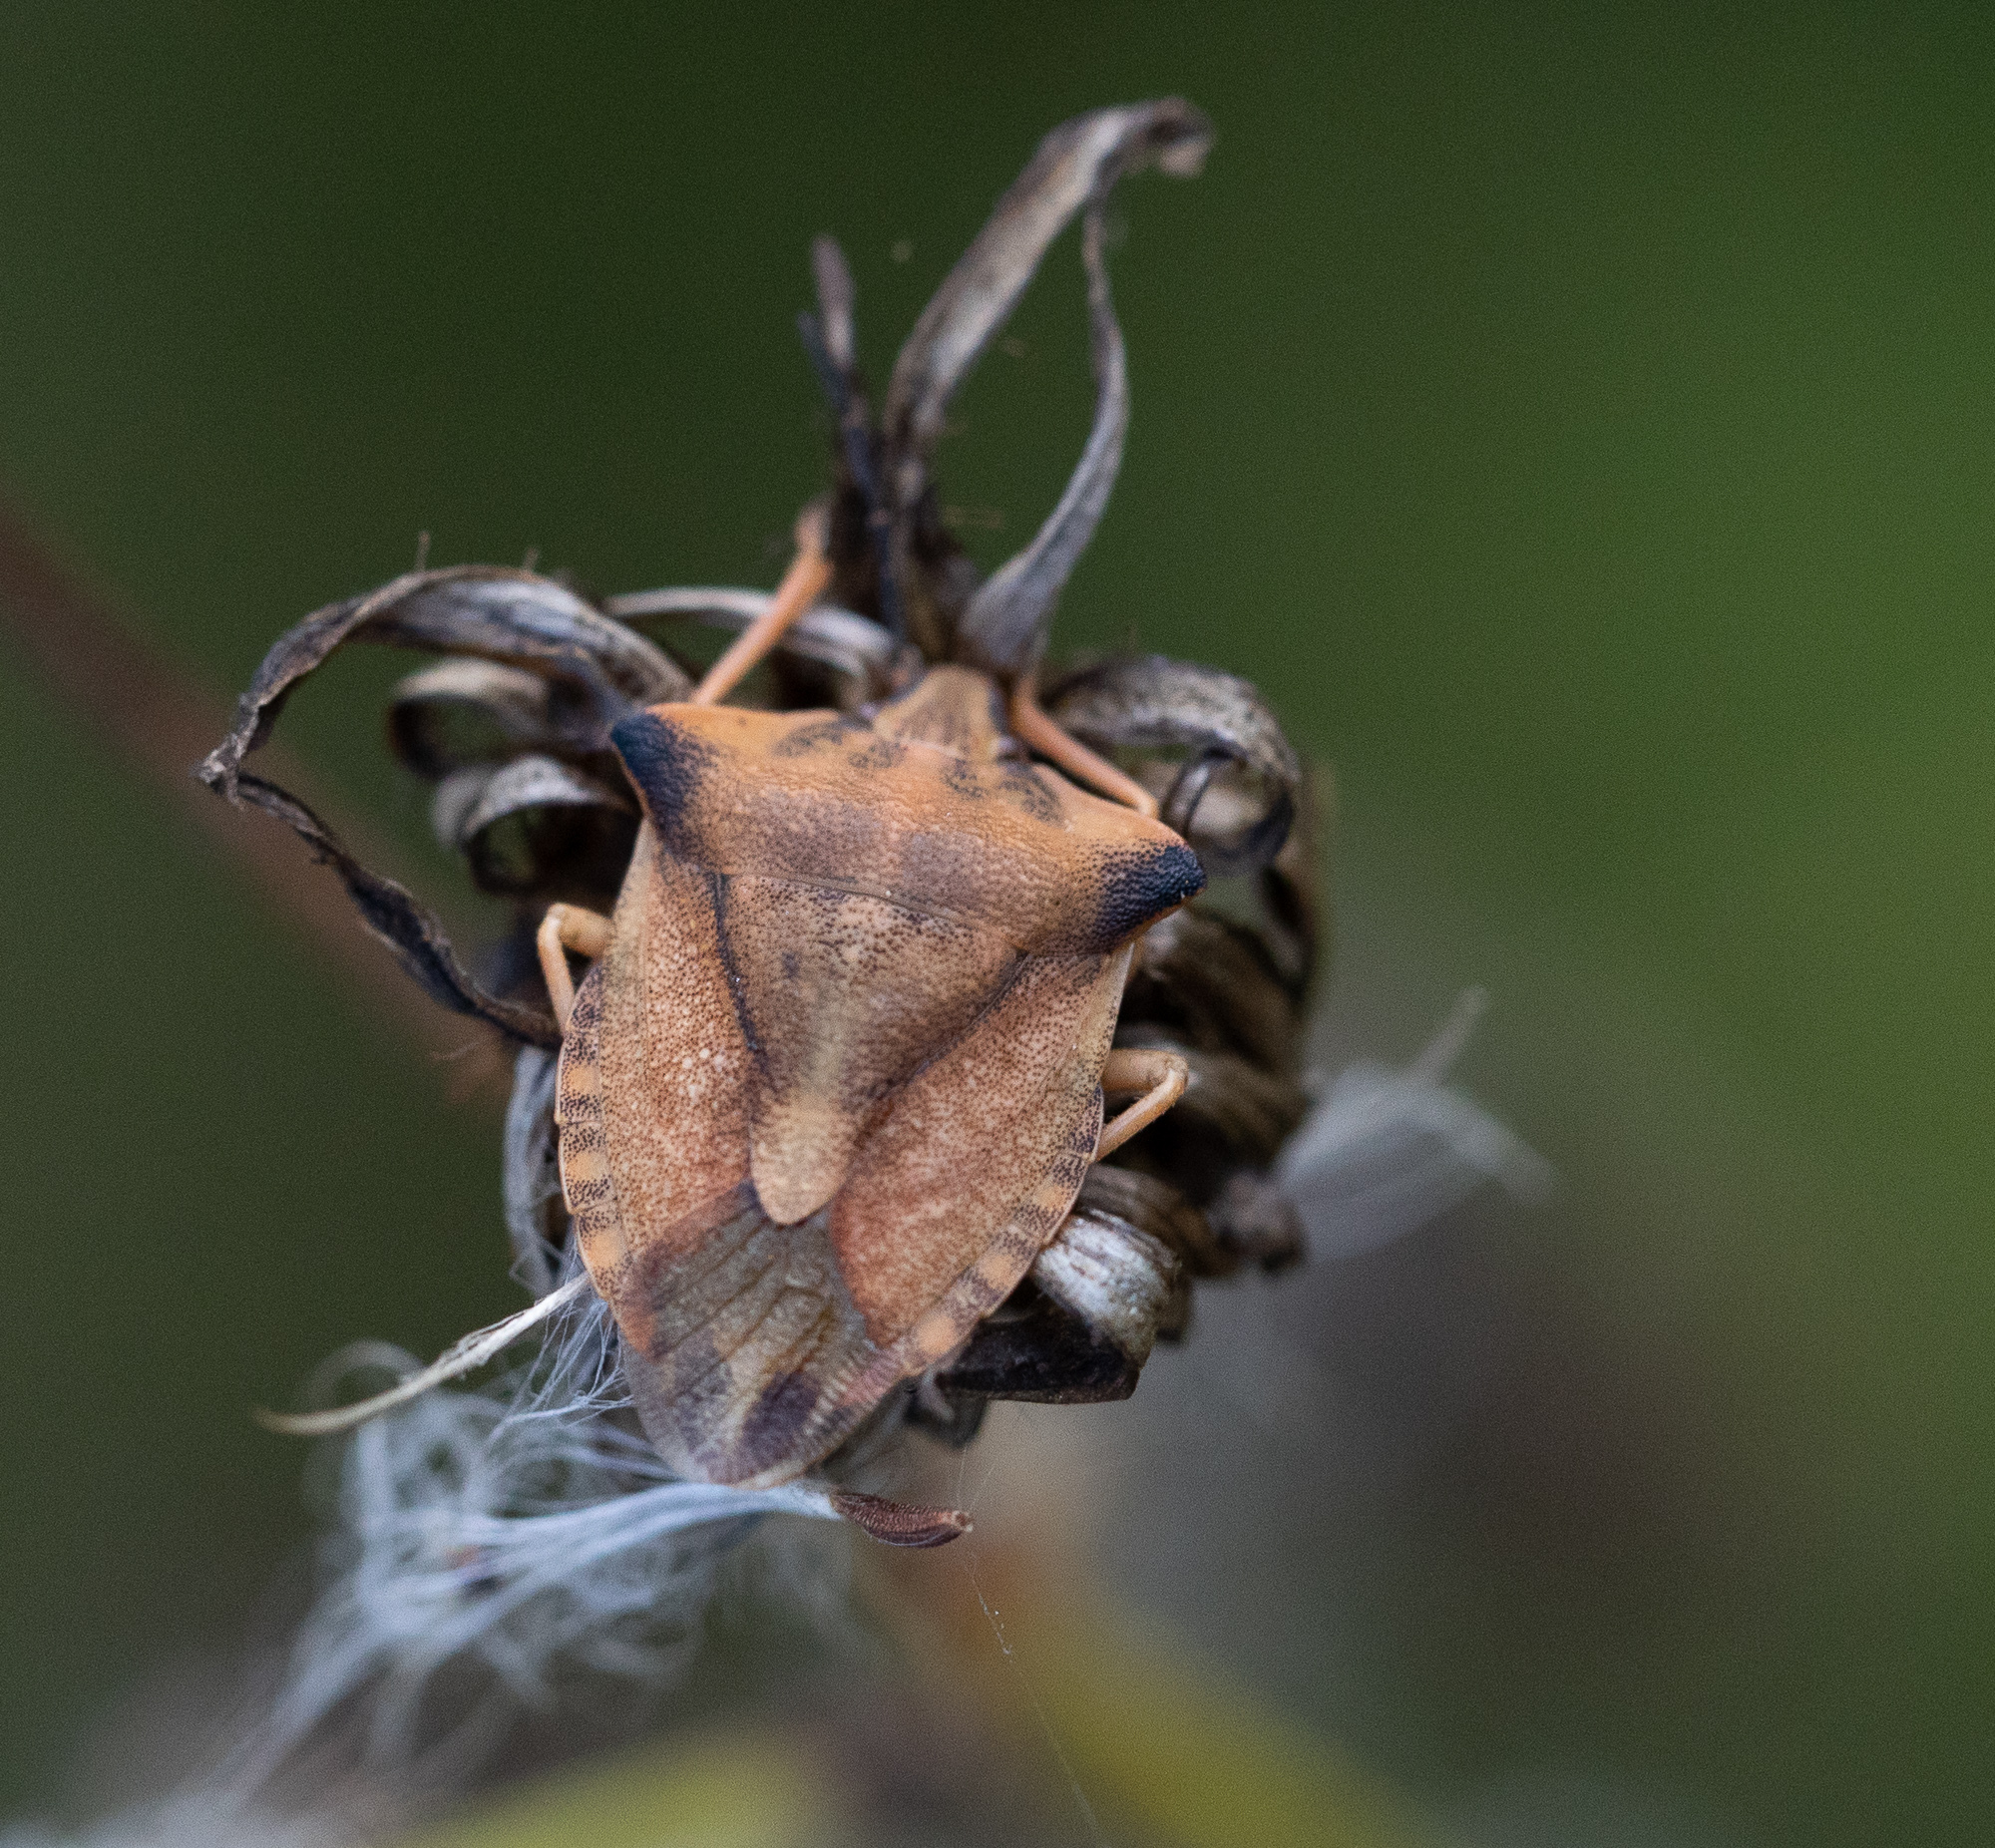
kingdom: Animalia
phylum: Arthropoda
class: Insecta
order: Hemiptera
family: Pentatomidae
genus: Carpocoris
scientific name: Carpocoris fuscispinus
